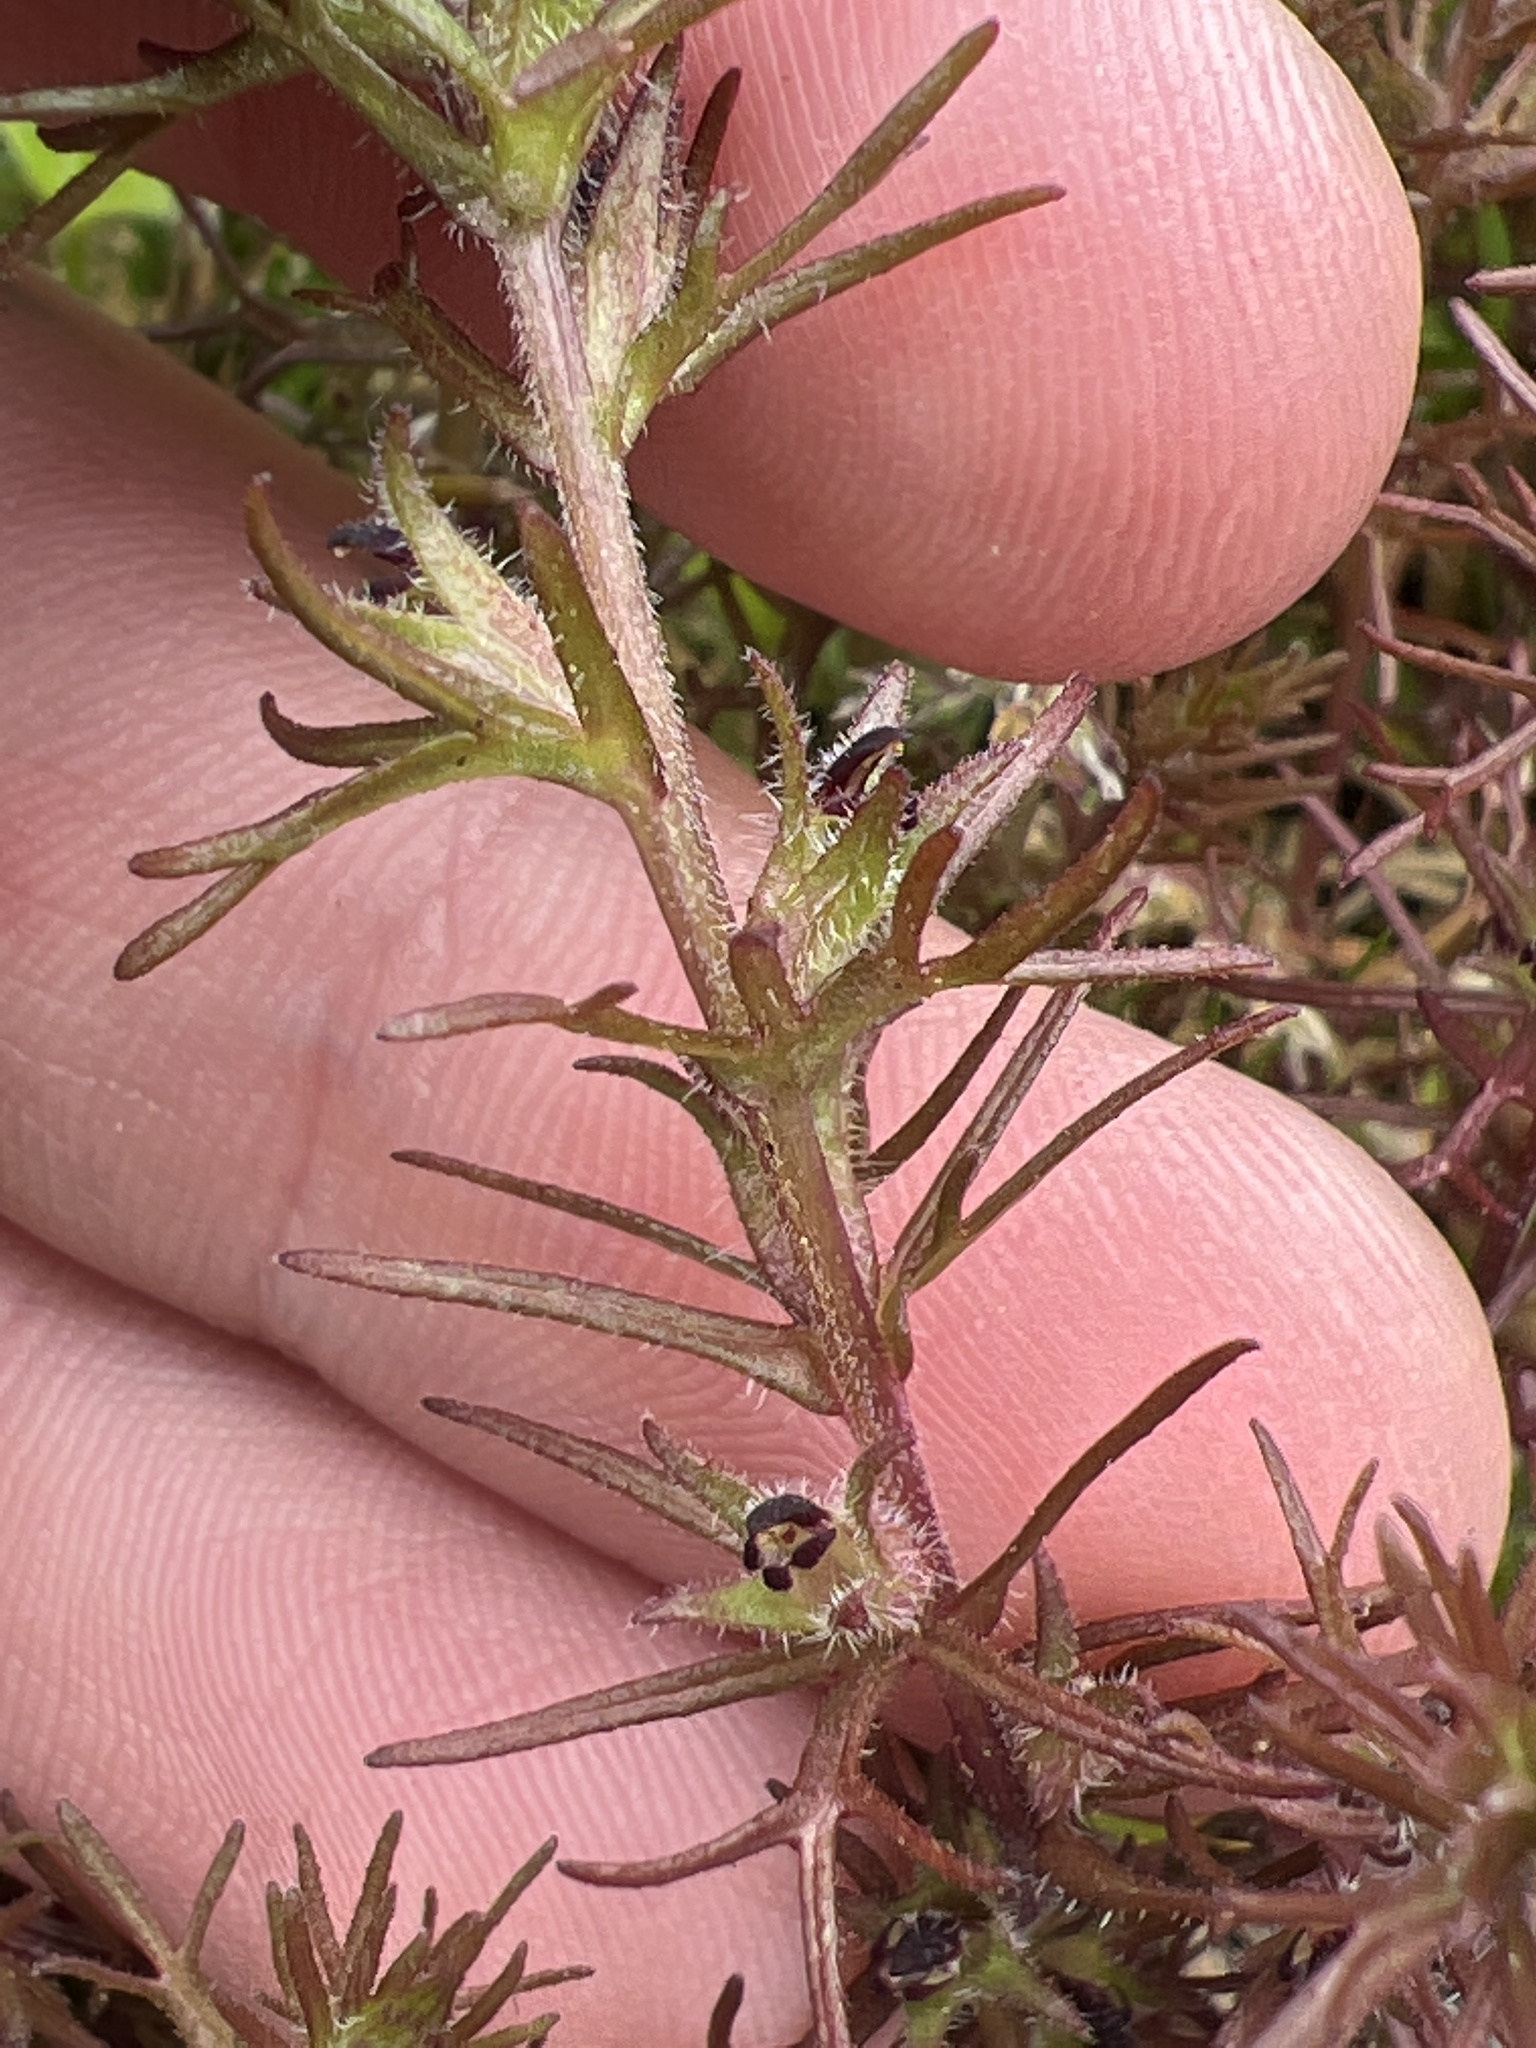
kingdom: Plantae
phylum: Tracheophyta
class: Magnoliopsida
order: Lamiales
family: Orobanchaceae
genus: Triphysaria
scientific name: Triphysaria pusilla
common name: Dwarf false owl-clover
